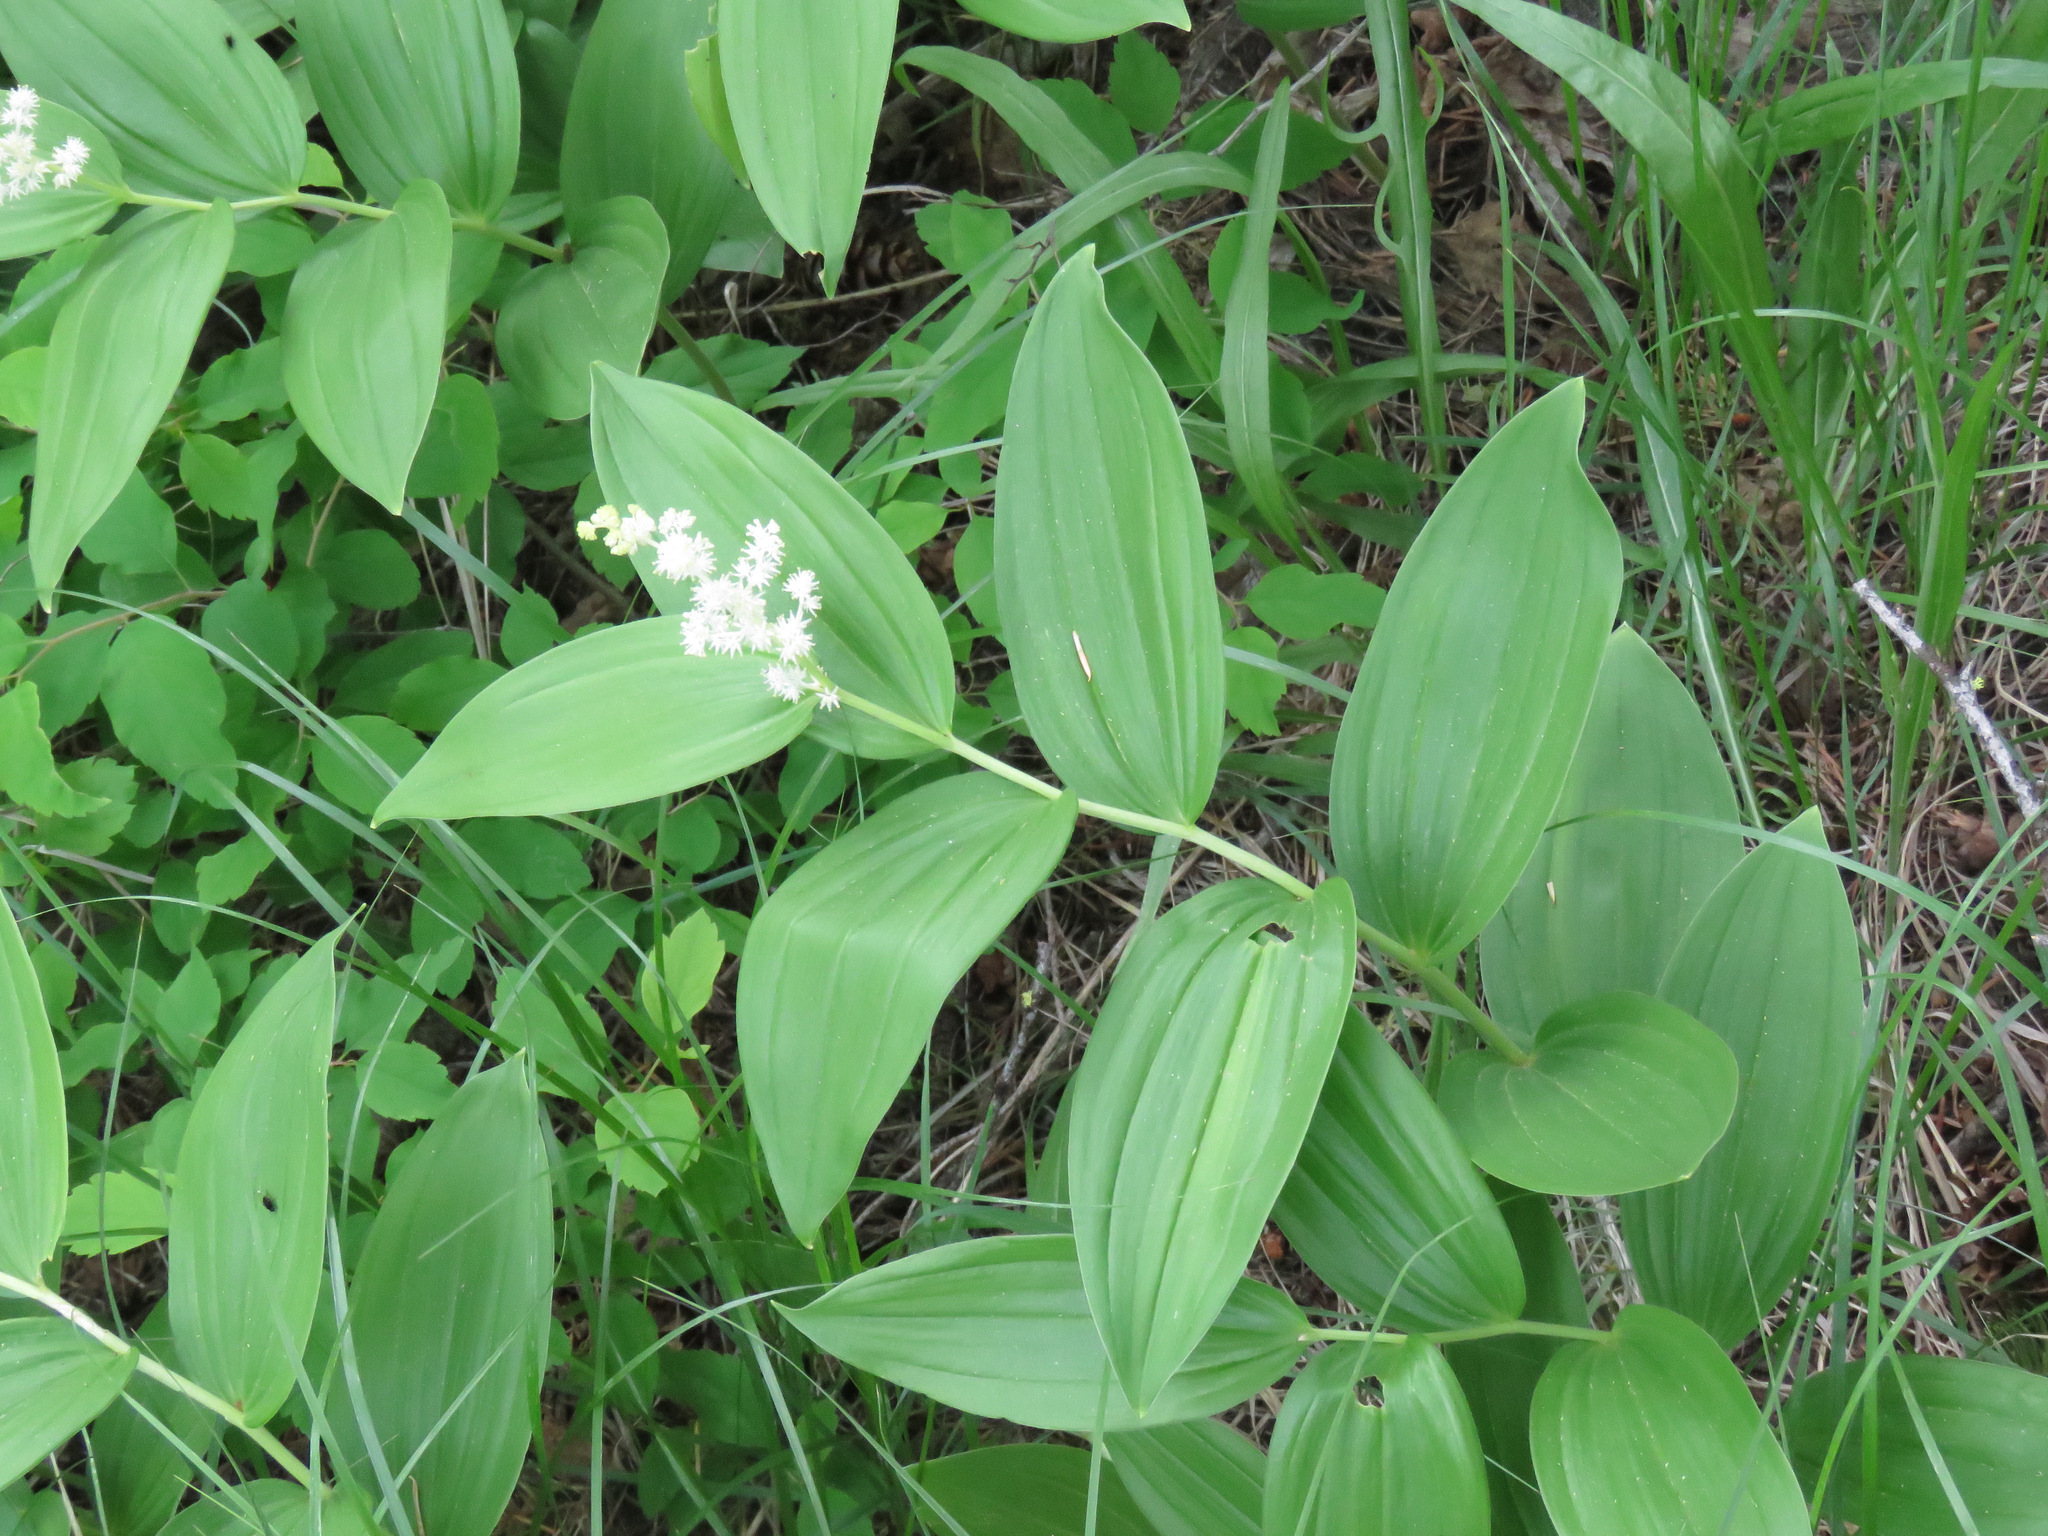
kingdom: Plantae
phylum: Tracheophyta
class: Liliopsida
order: Asparagales
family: Asparagaceae
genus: Maianthemum
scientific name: Maianthemum racemosum
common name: False spikenard
